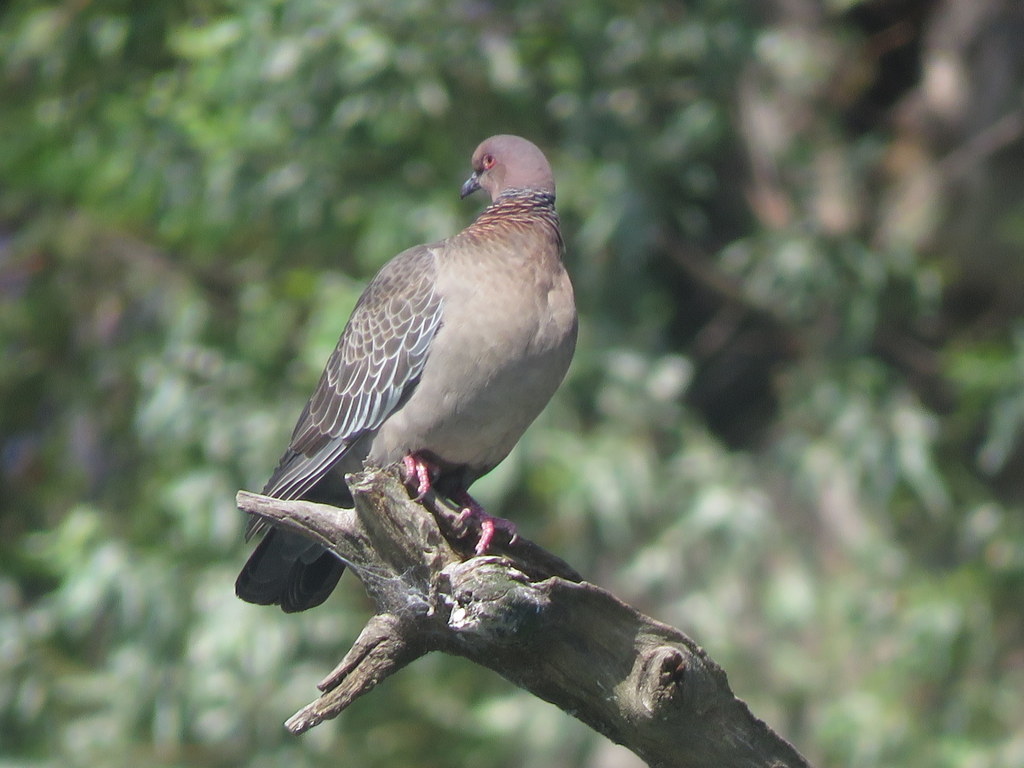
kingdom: Animalia
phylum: Chordata
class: Aves
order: Columbiformes
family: Columbidae
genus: Patagioenas
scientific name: Patagioenas picazuro
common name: Picazuro pigeon
